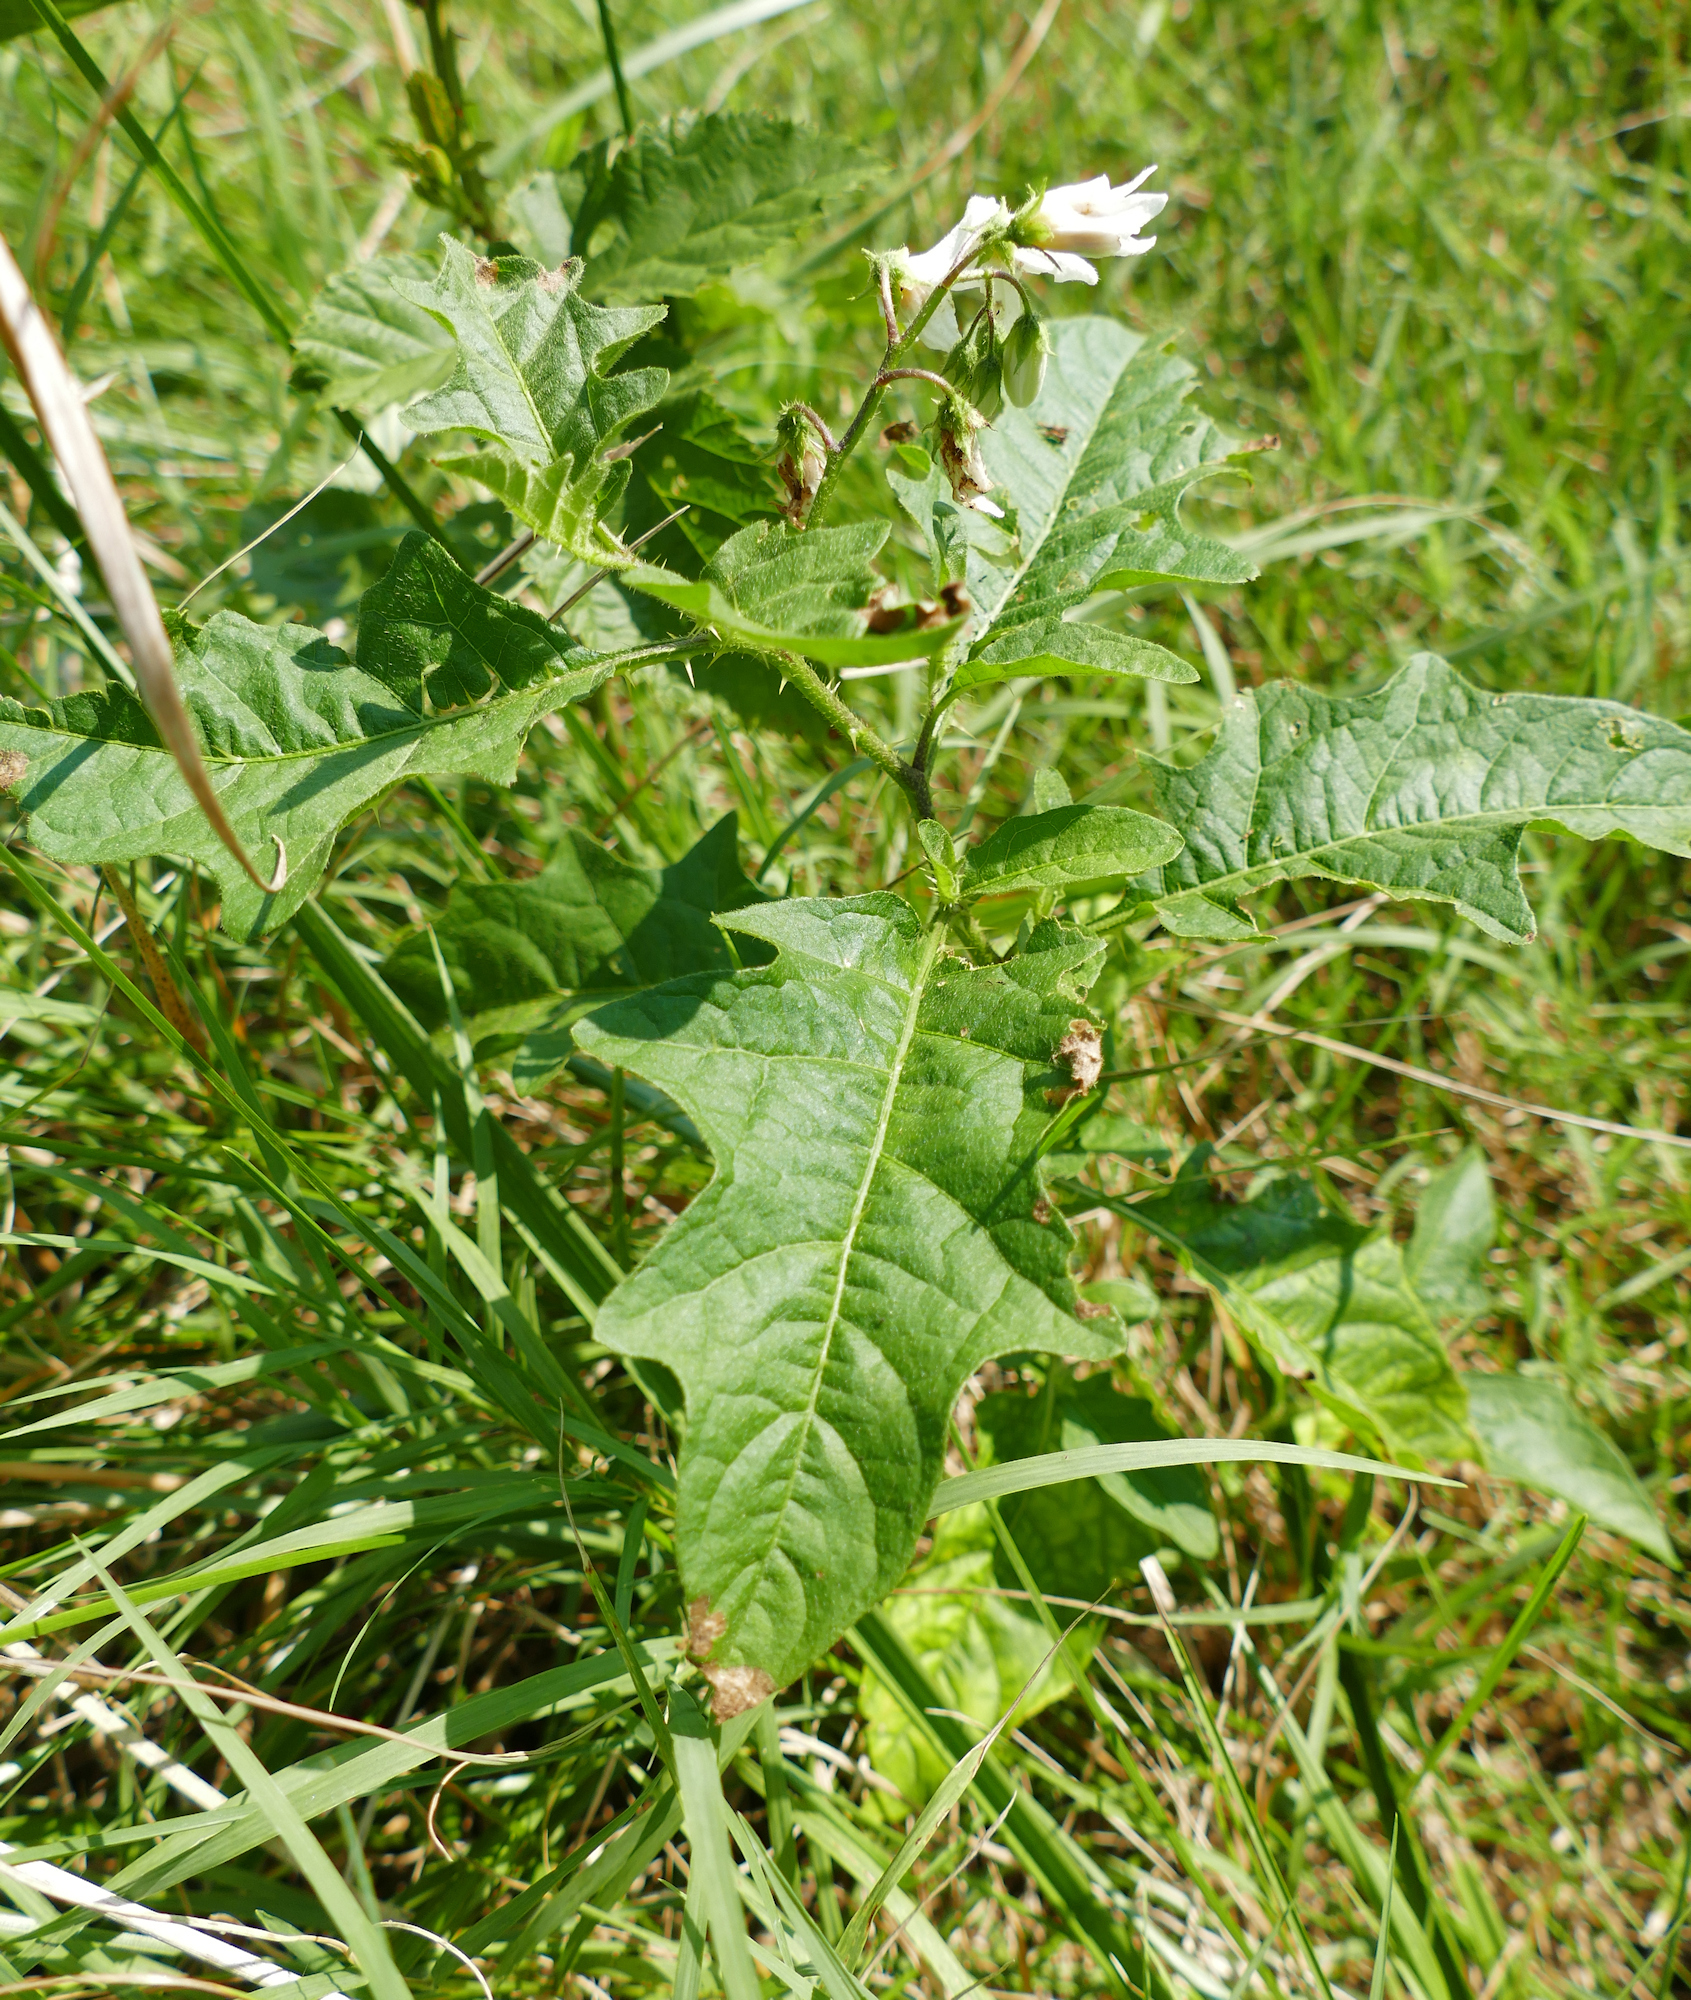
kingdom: Plantae
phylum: Tracheophyta
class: Magnoliopsida
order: Solanales
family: Solanaceae
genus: Solanum
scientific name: Solanum carolinense
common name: Horse-nettle
